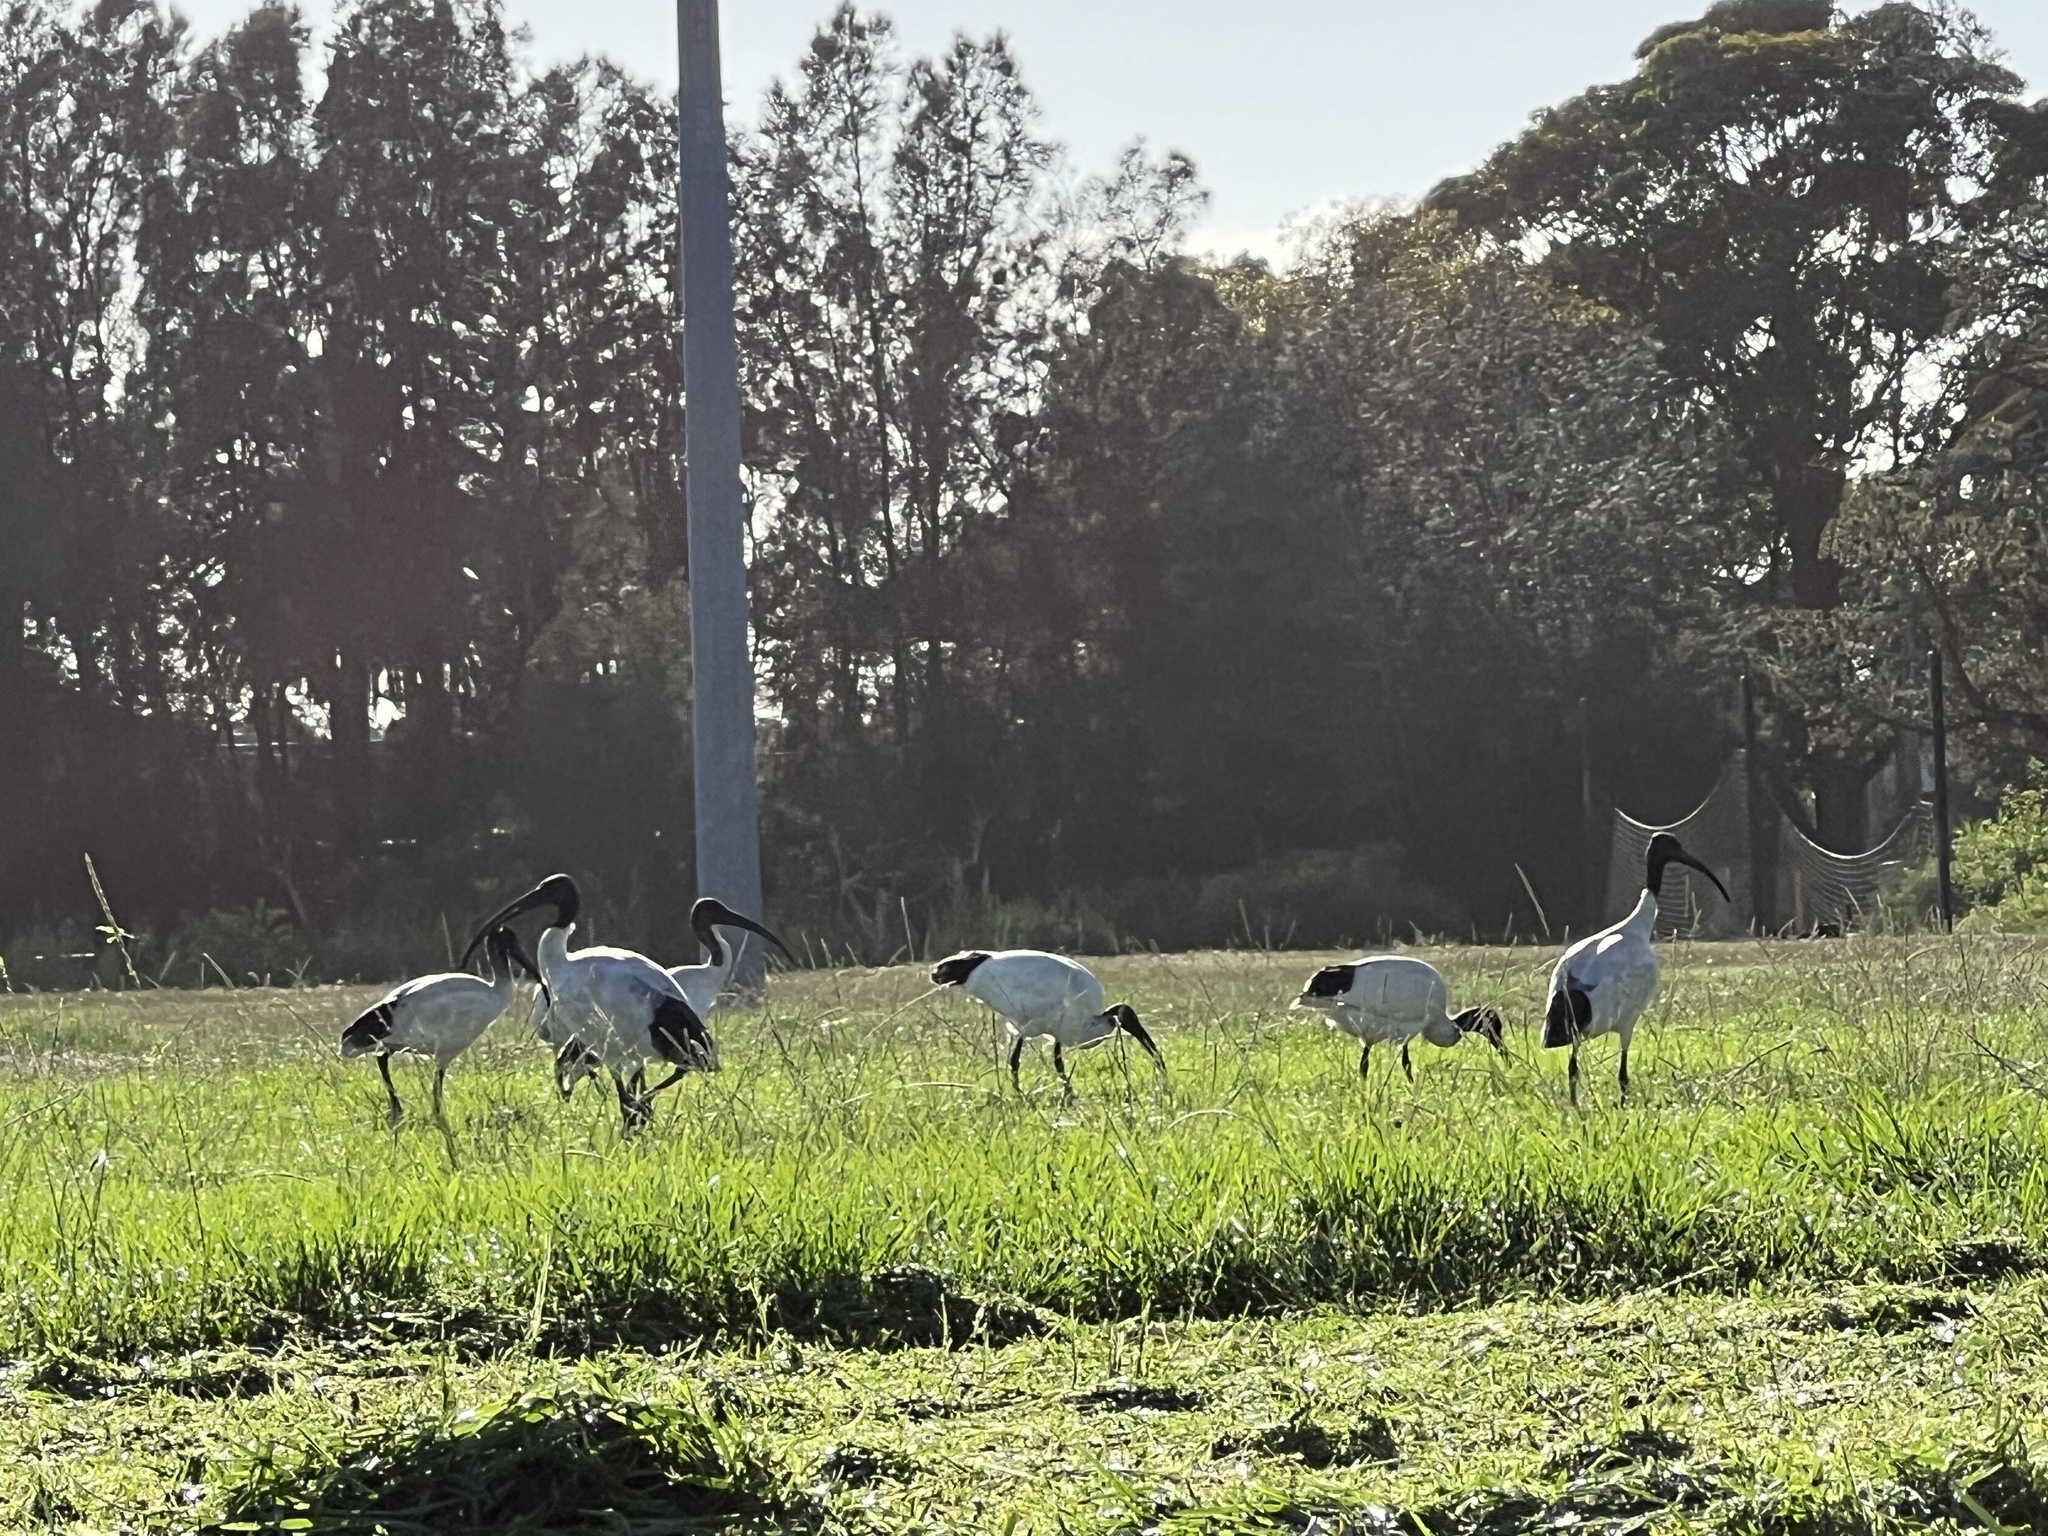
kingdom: Animalia
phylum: Chordata
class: Aves
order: Pelecaniformes
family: Threskiornithidae
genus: Threskiornis
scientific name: Threskiornis molucca
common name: Australian white ibis
